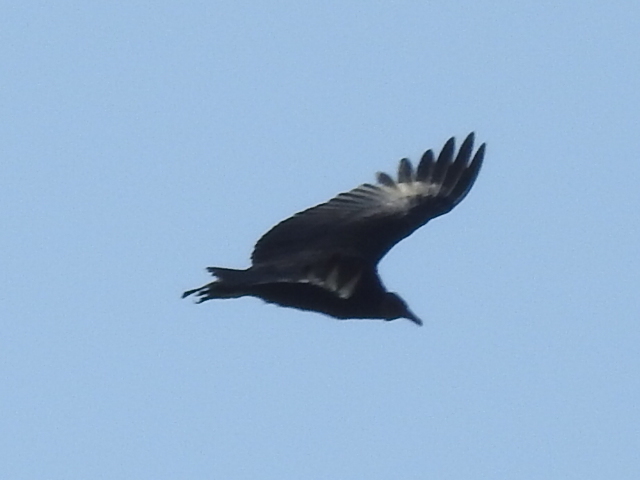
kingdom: Animalia
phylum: Chordata
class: Aves
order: Accipitriformes
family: Cathartidae
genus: Coragyps
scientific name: Coragyps atratus
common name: Black vulture
